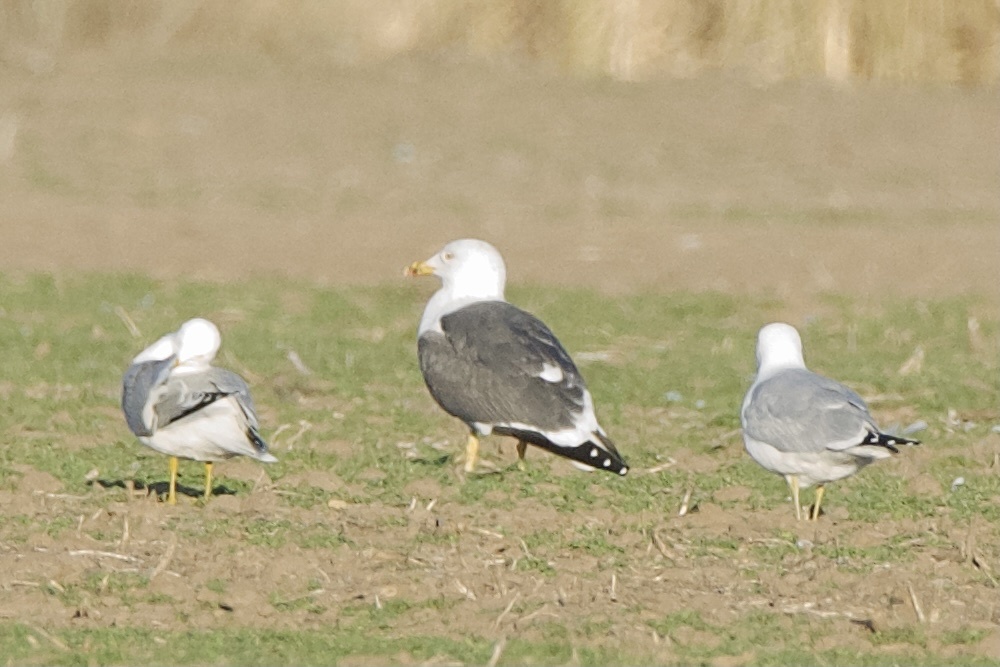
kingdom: Animalia
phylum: Chordata
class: Aves
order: Charadriiformes
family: Laridae
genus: Larus
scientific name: Larus fuscus
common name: Lesser black-backed gull
